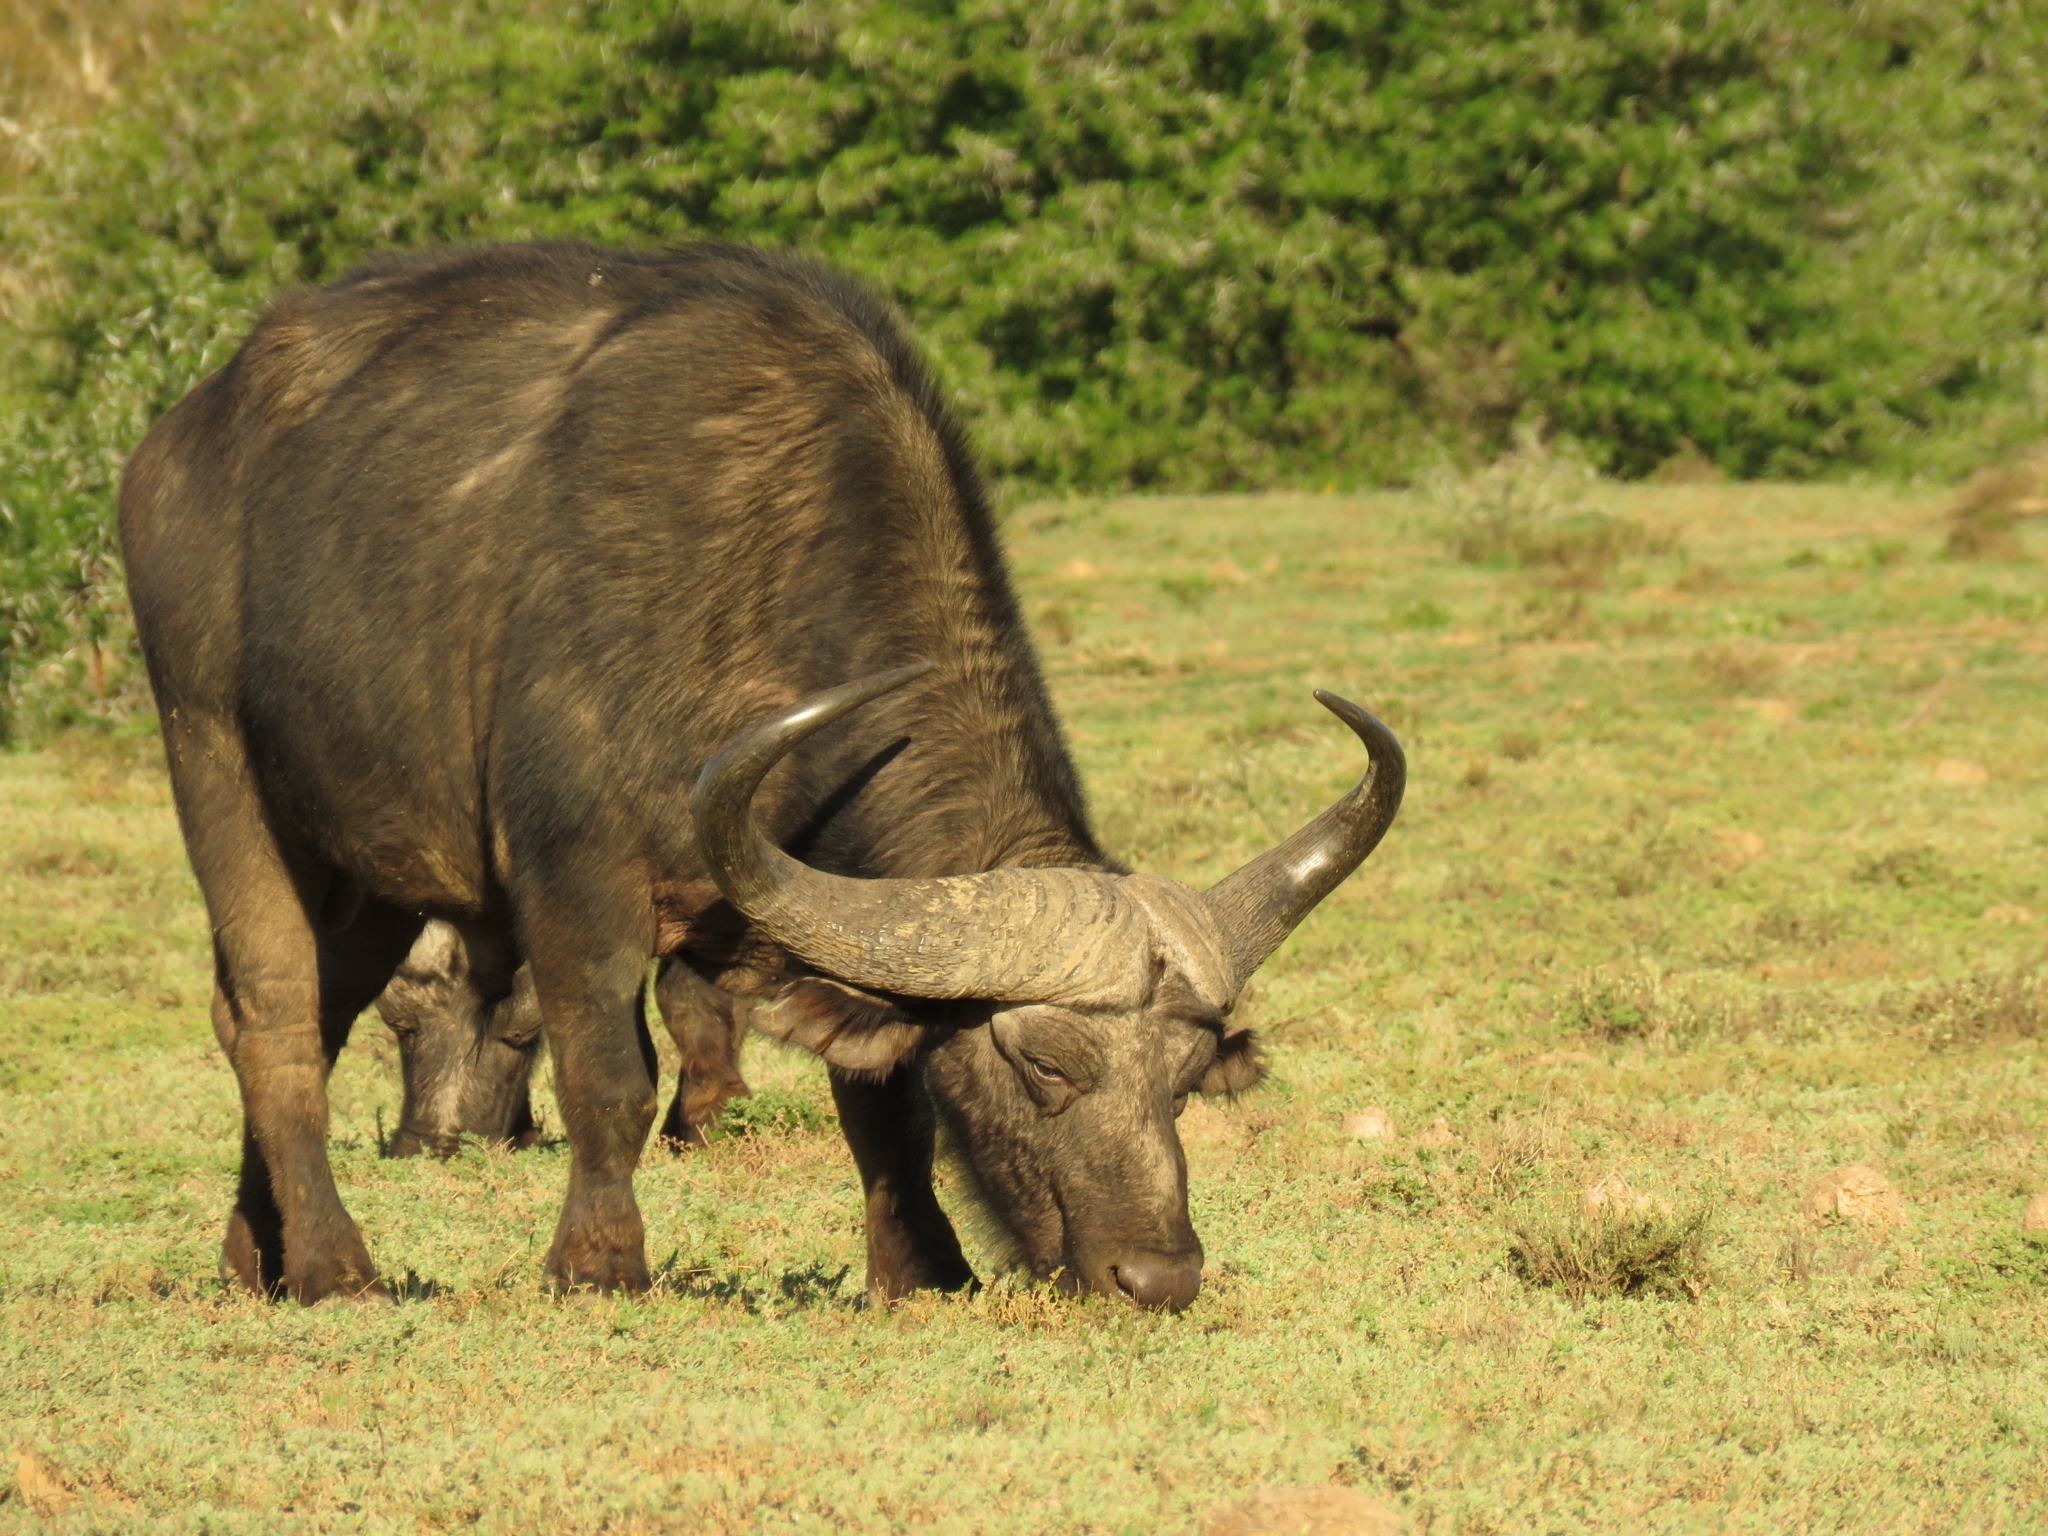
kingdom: Animalia
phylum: Chordata
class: Mammalia
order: Artiodactyla
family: Bovidae
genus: Syncerus
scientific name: Syncerus caffer
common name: African buffalo
